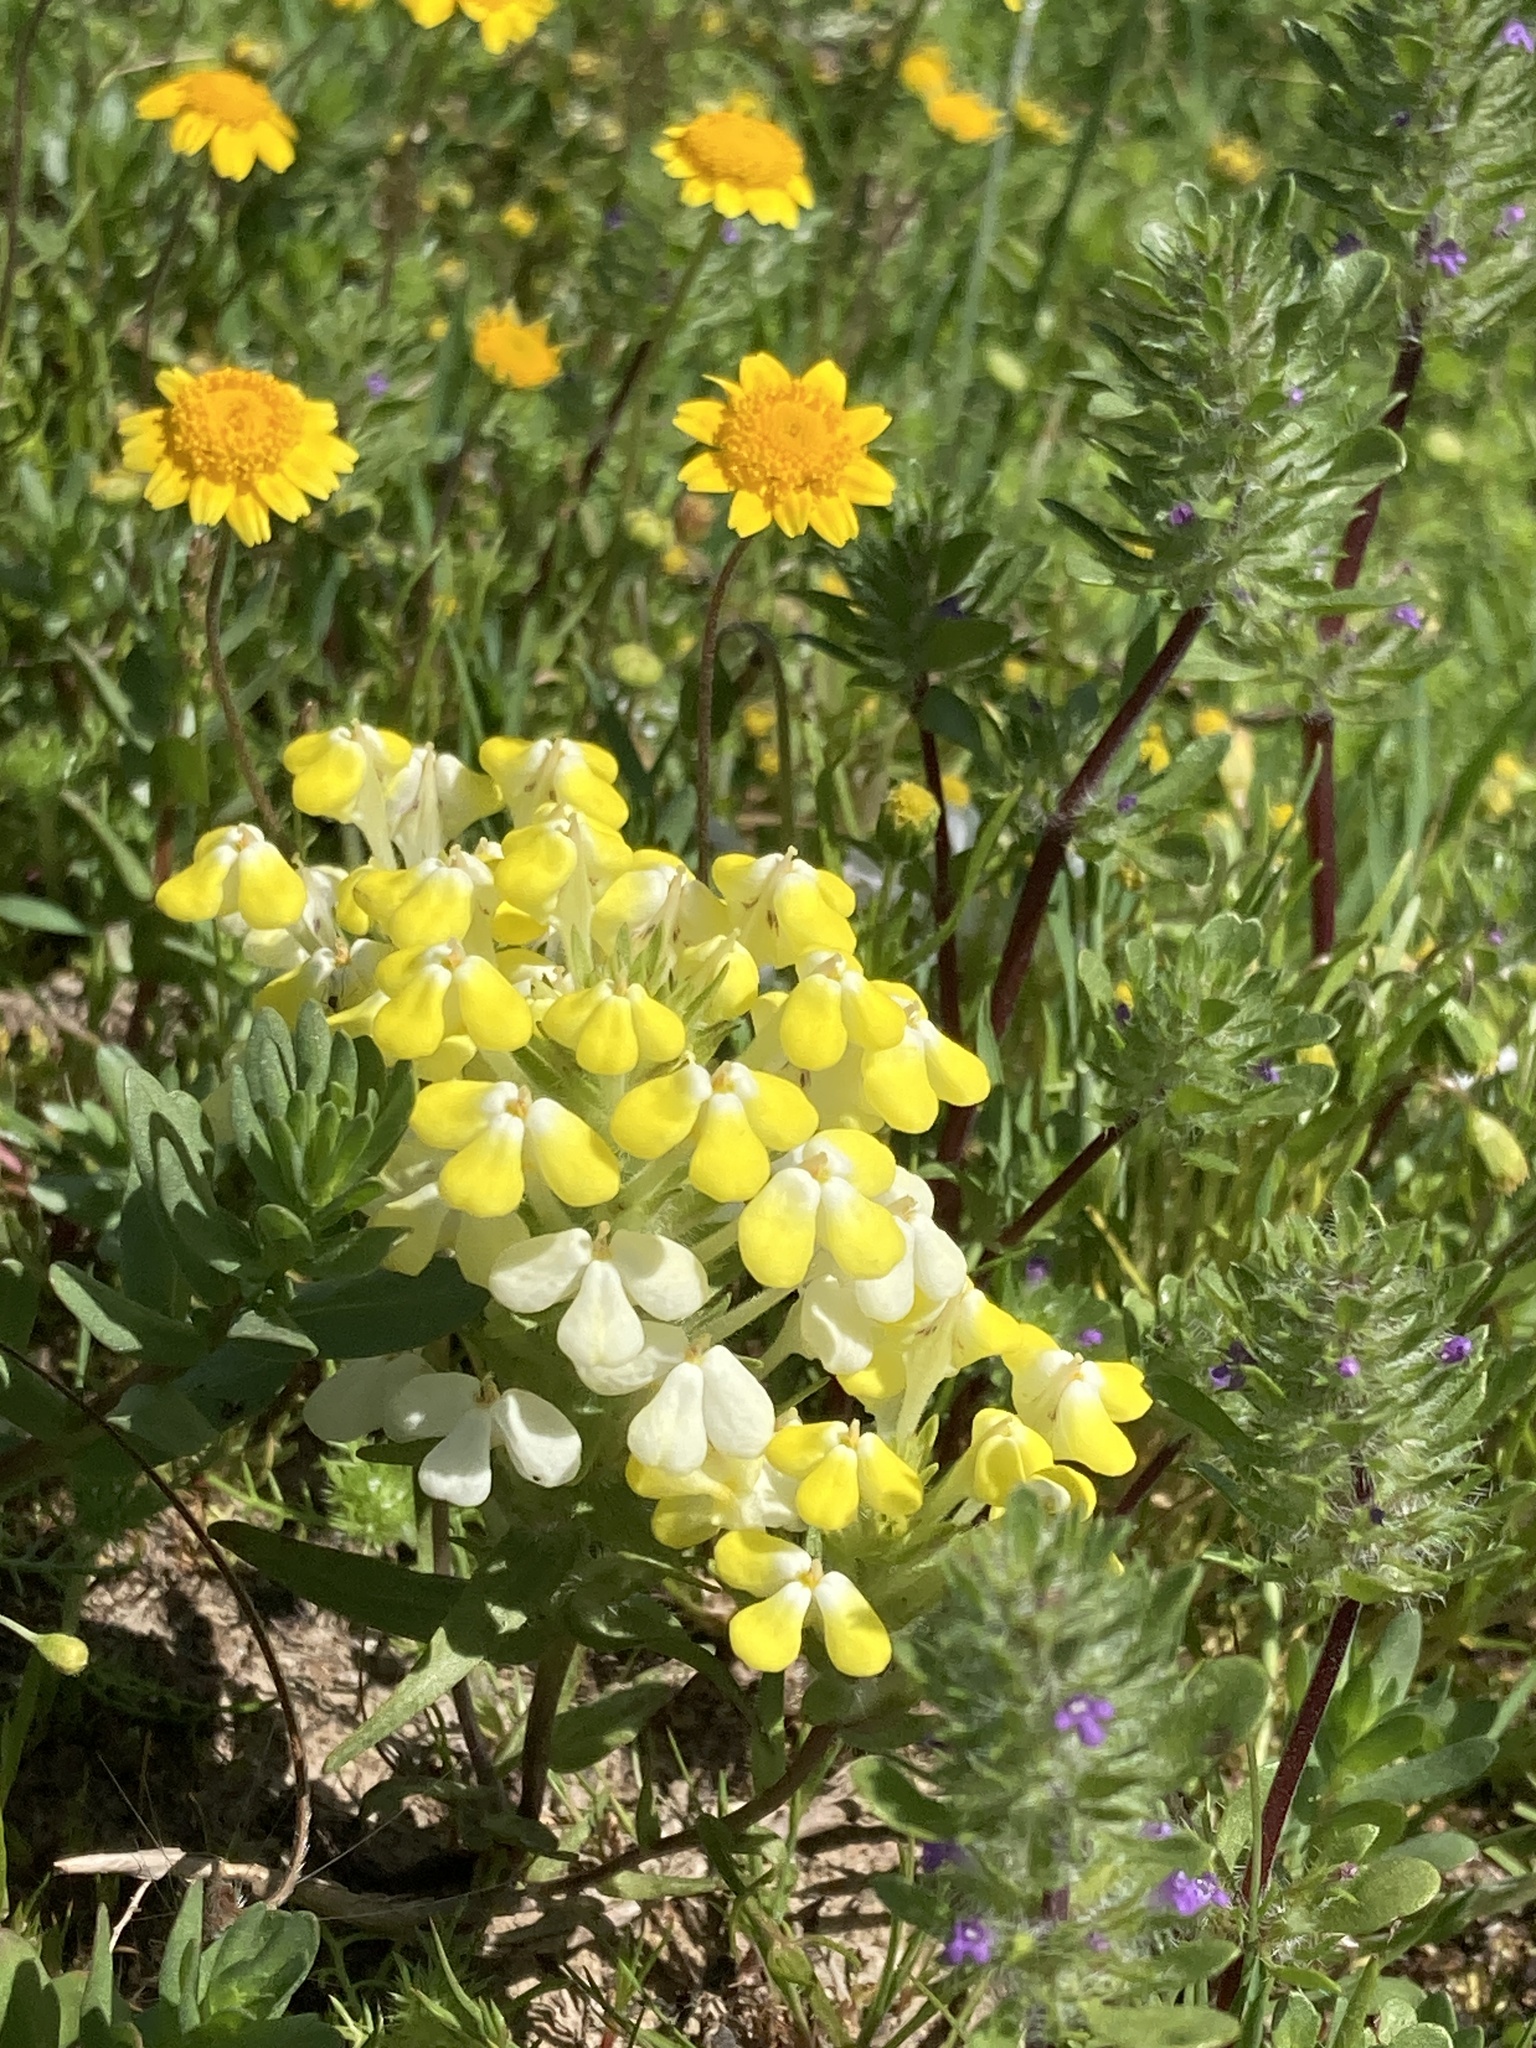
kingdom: Plantae
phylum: Tracheophyta
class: Magnoliopsida
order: Lamiales
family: Orobanchaceae
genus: Castilleja
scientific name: Castilleja campestris
